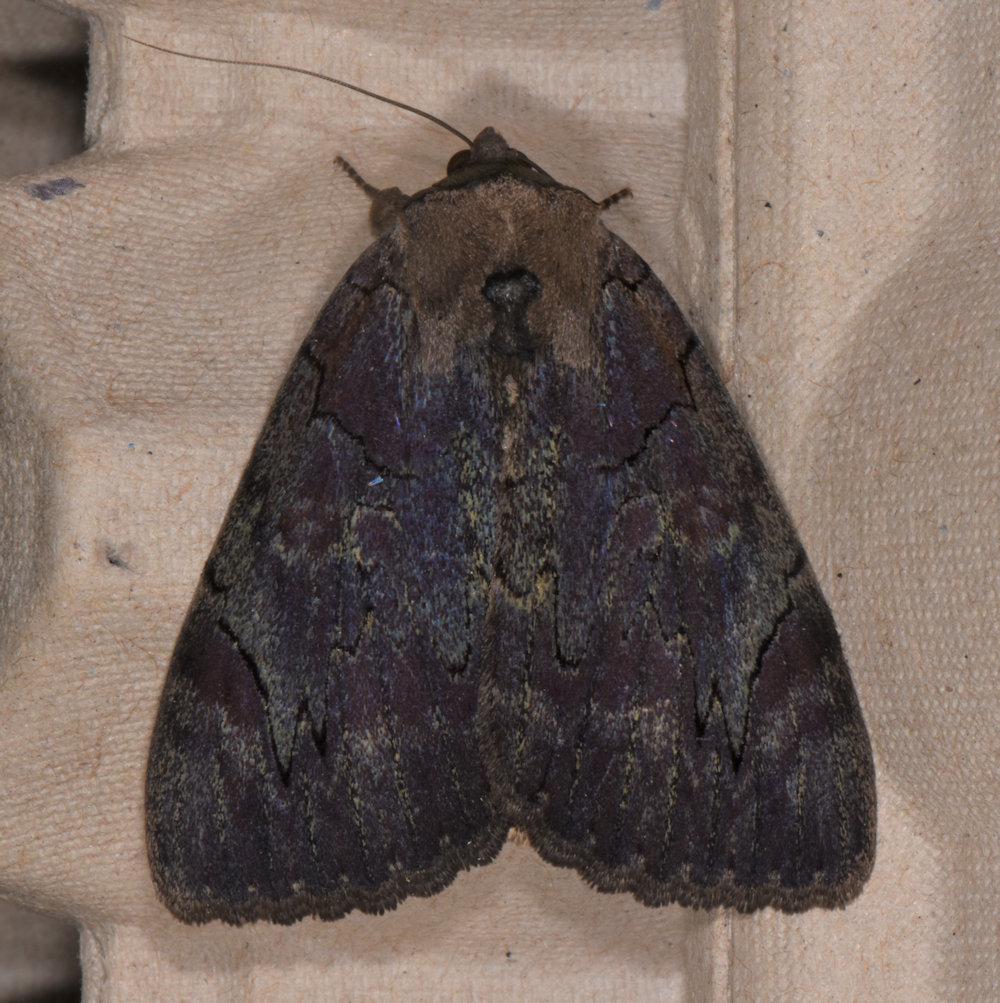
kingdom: Animalia
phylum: Arthropoda
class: Insecta
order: Lepidoptera
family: Erebidae
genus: Catocala
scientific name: Catocala cara
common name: Darling underwing
